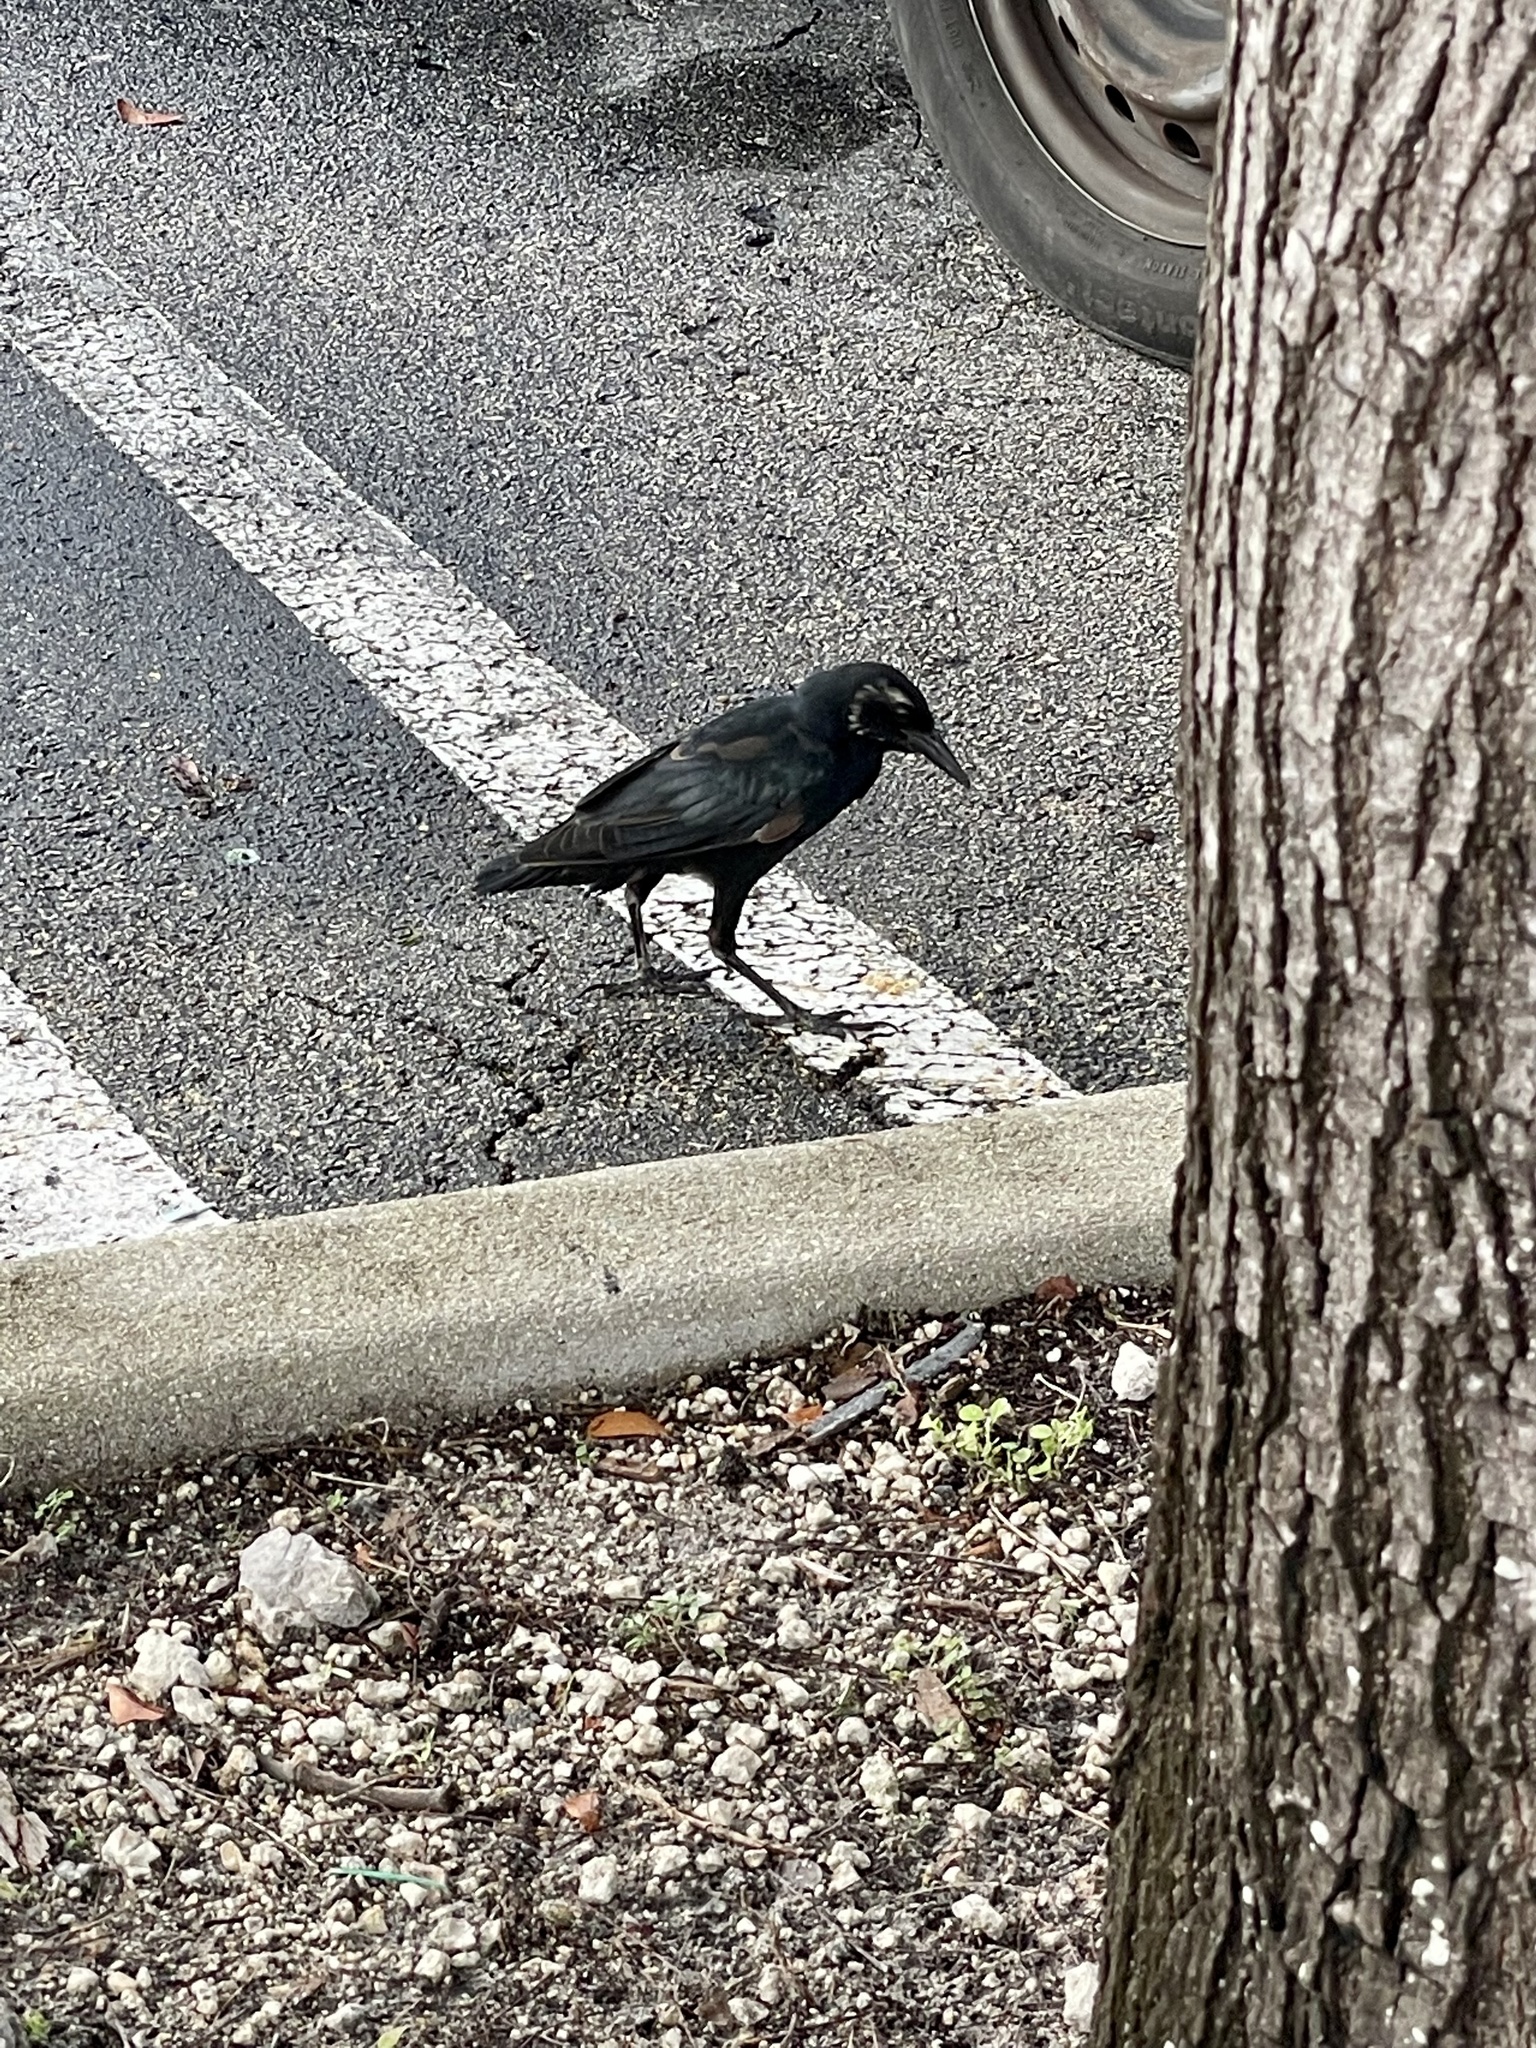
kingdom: Animalia
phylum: Chordata
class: Aves
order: Passeriformes
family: Icteridae
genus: Quiscalus
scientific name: Quiscalus major
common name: Boat-tailed grackle
